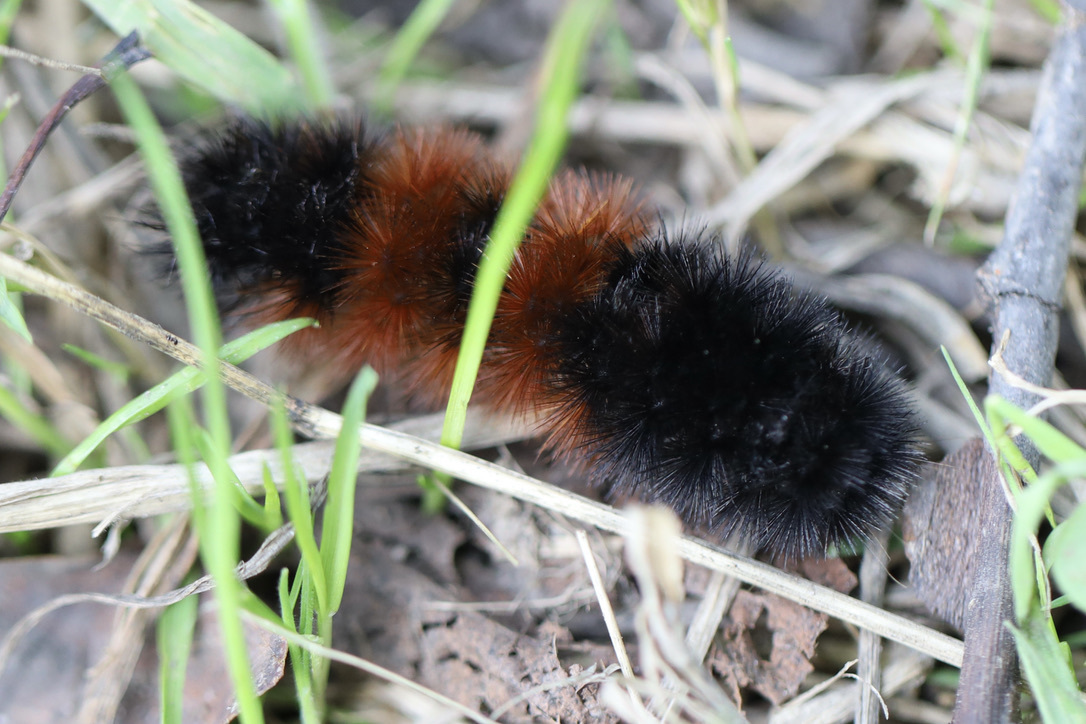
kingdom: Animalia
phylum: Arthropoda
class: Insecta
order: Lepidoptera
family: Erebidae
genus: Pyrrharctia
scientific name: Pyrrharctia isabella
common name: Isabella tiger moth
